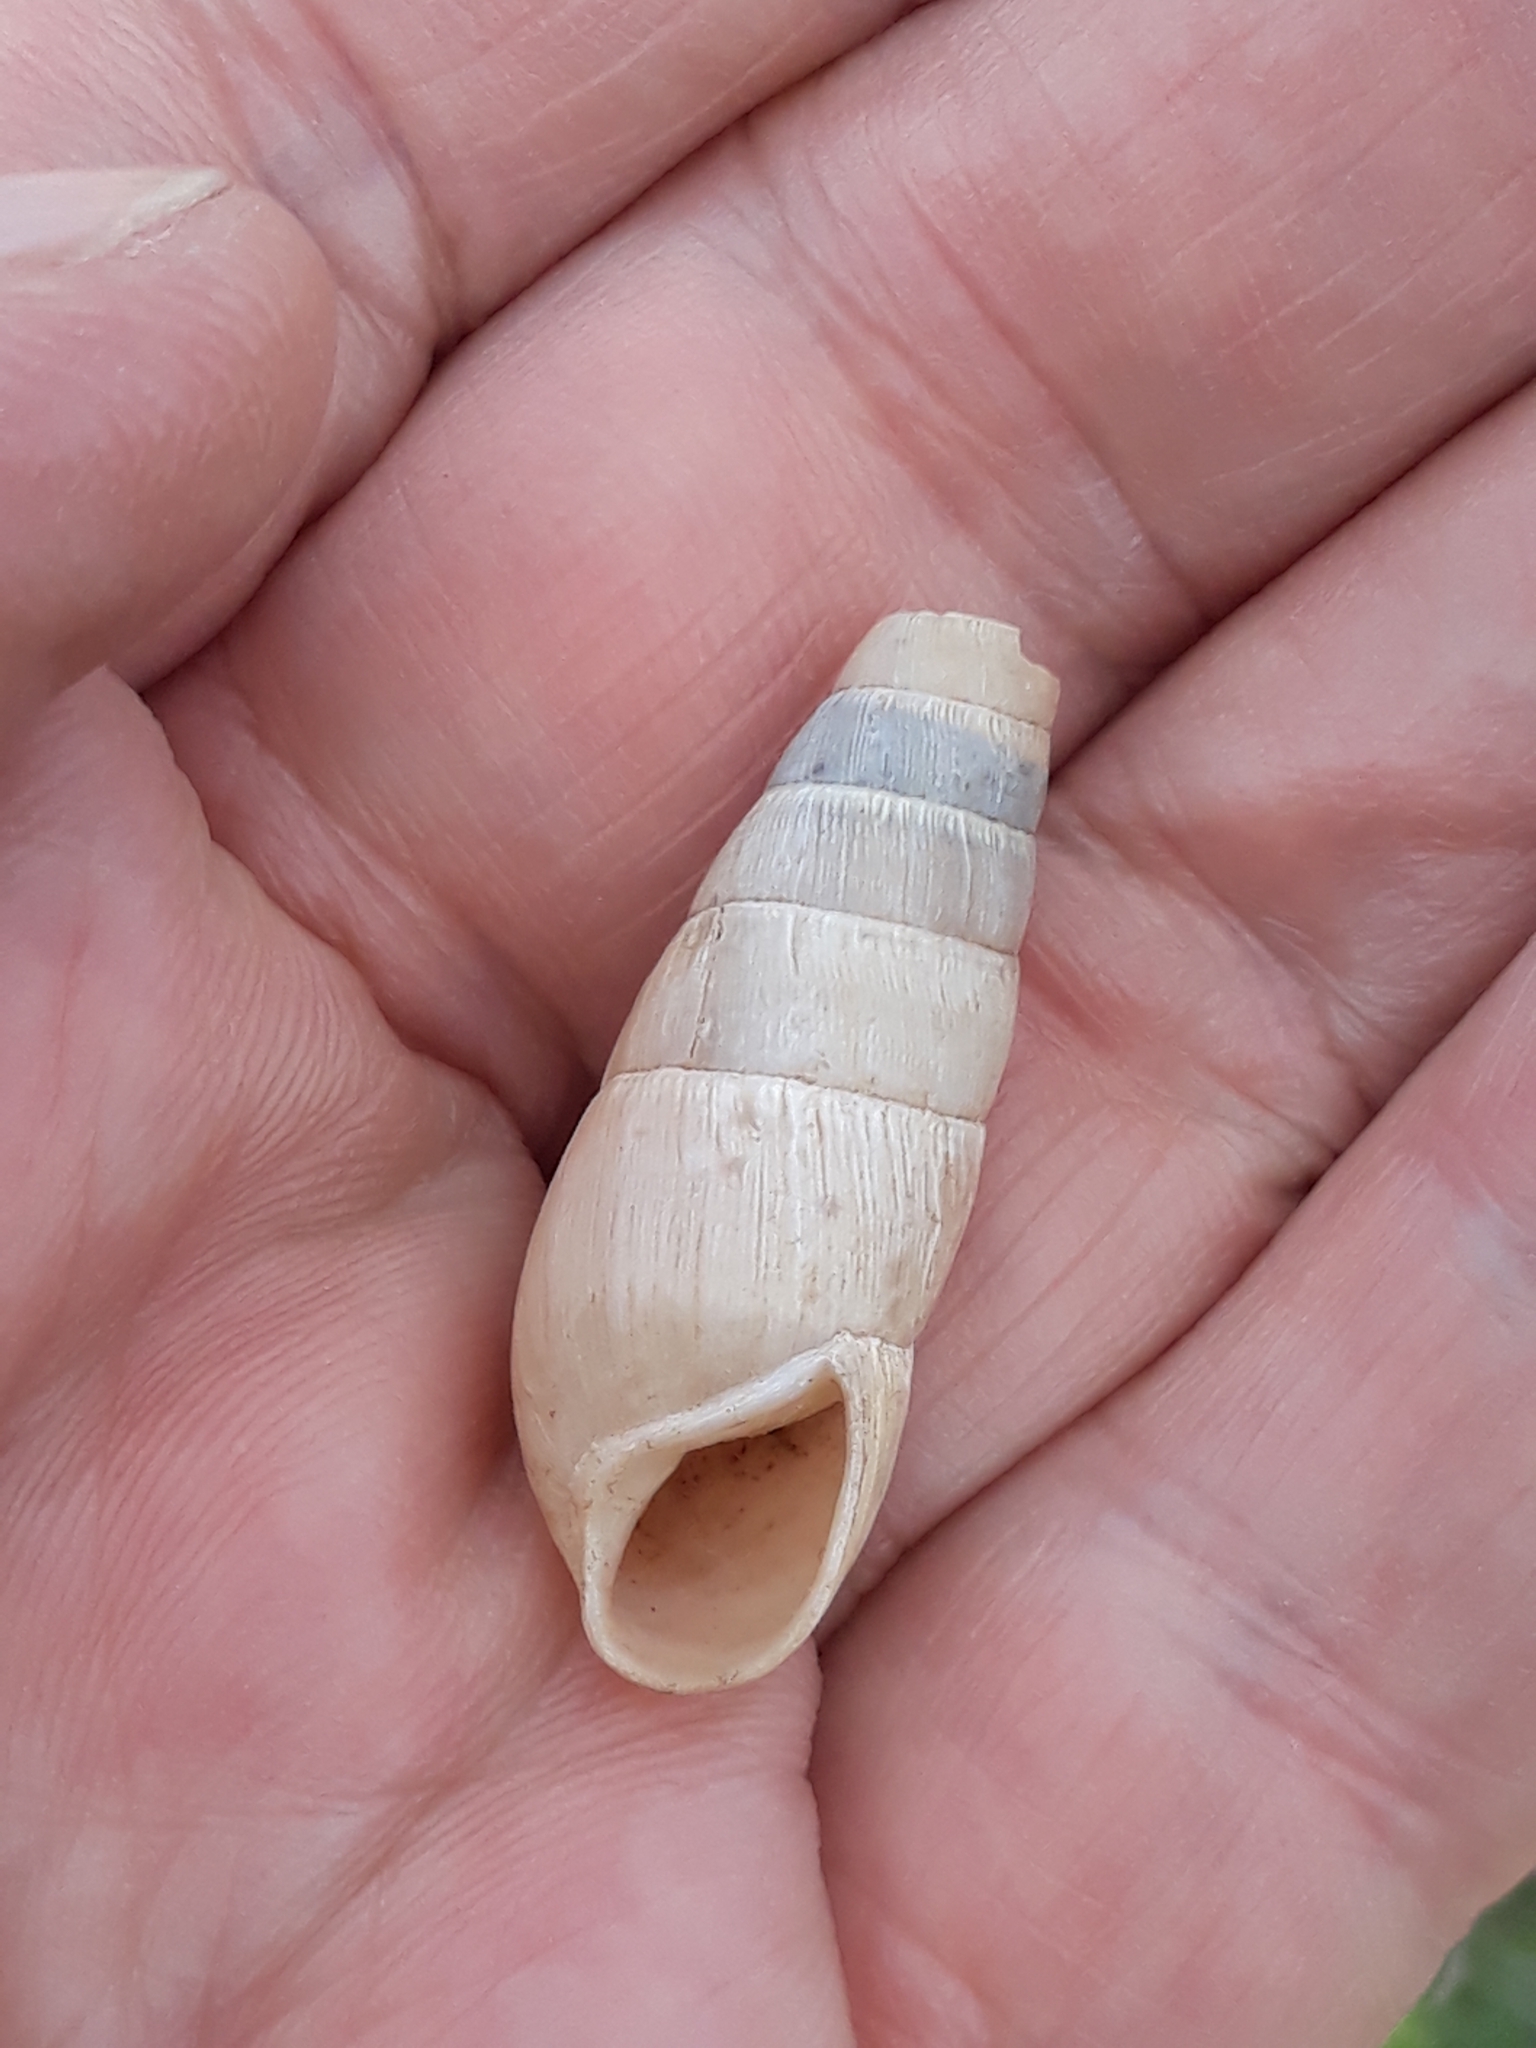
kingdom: Animalia
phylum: Mollusca
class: Gastropoda
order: Stylommatophora
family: Achatinidae
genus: Rumina
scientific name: Rumina decollata
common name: Decollate snail
